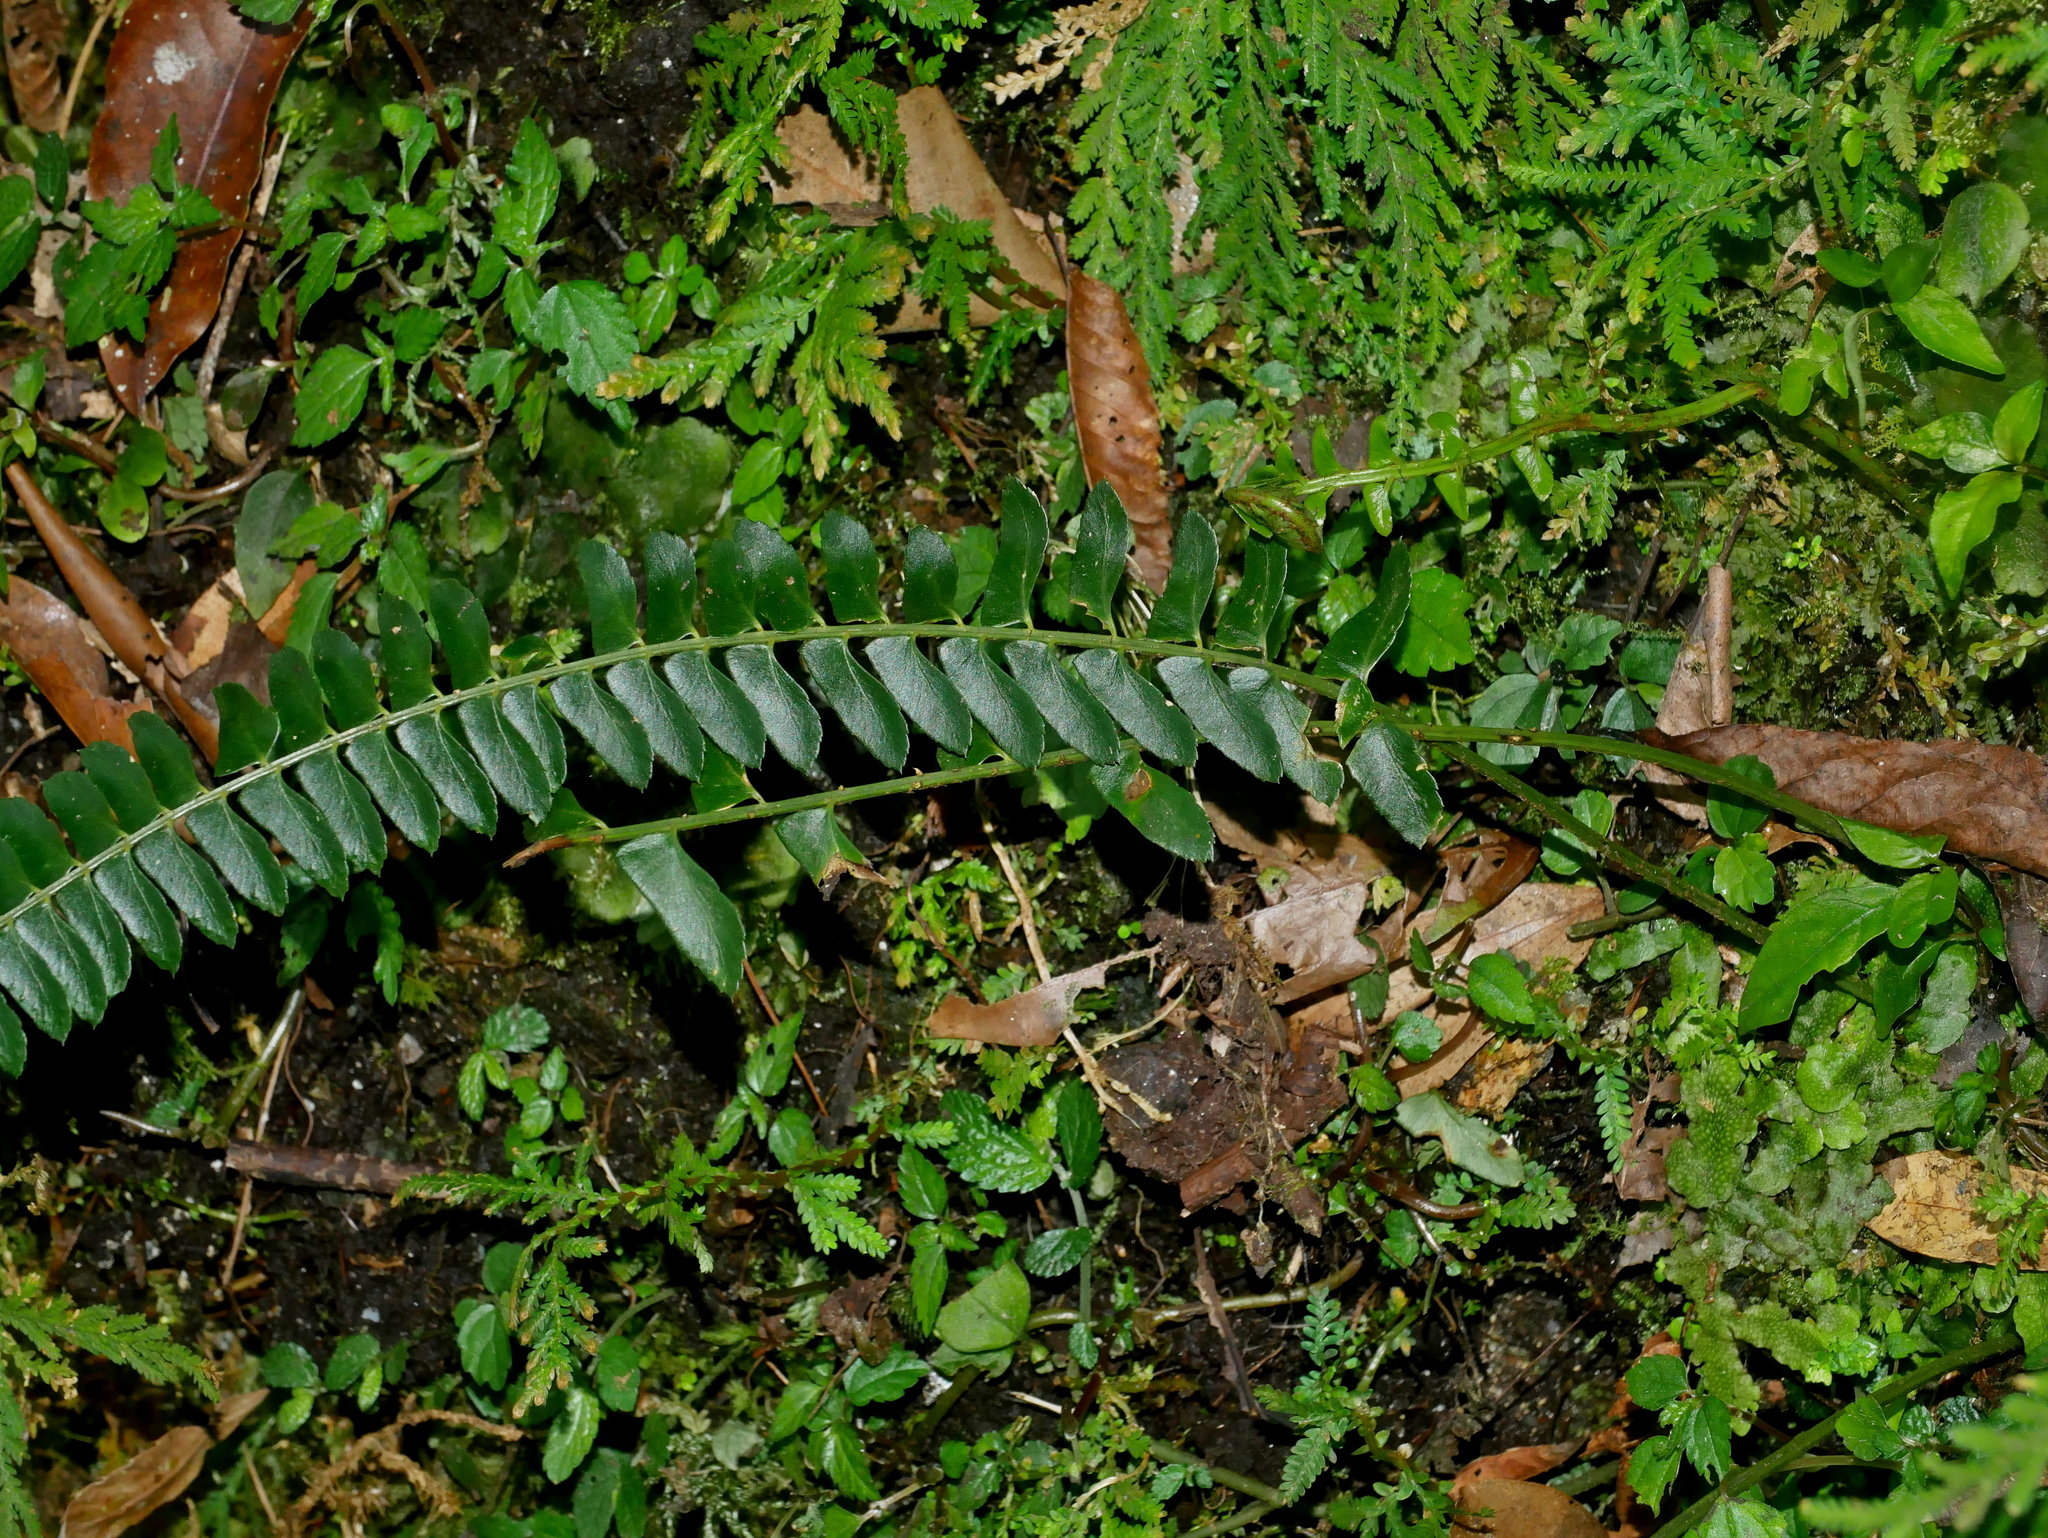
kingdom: Plantae
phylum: Tracheophyta
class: Polypodiopsida
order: Polypodiales
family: Dryopteridaceae
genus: Polystichum
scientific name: Polystichum deltodon
